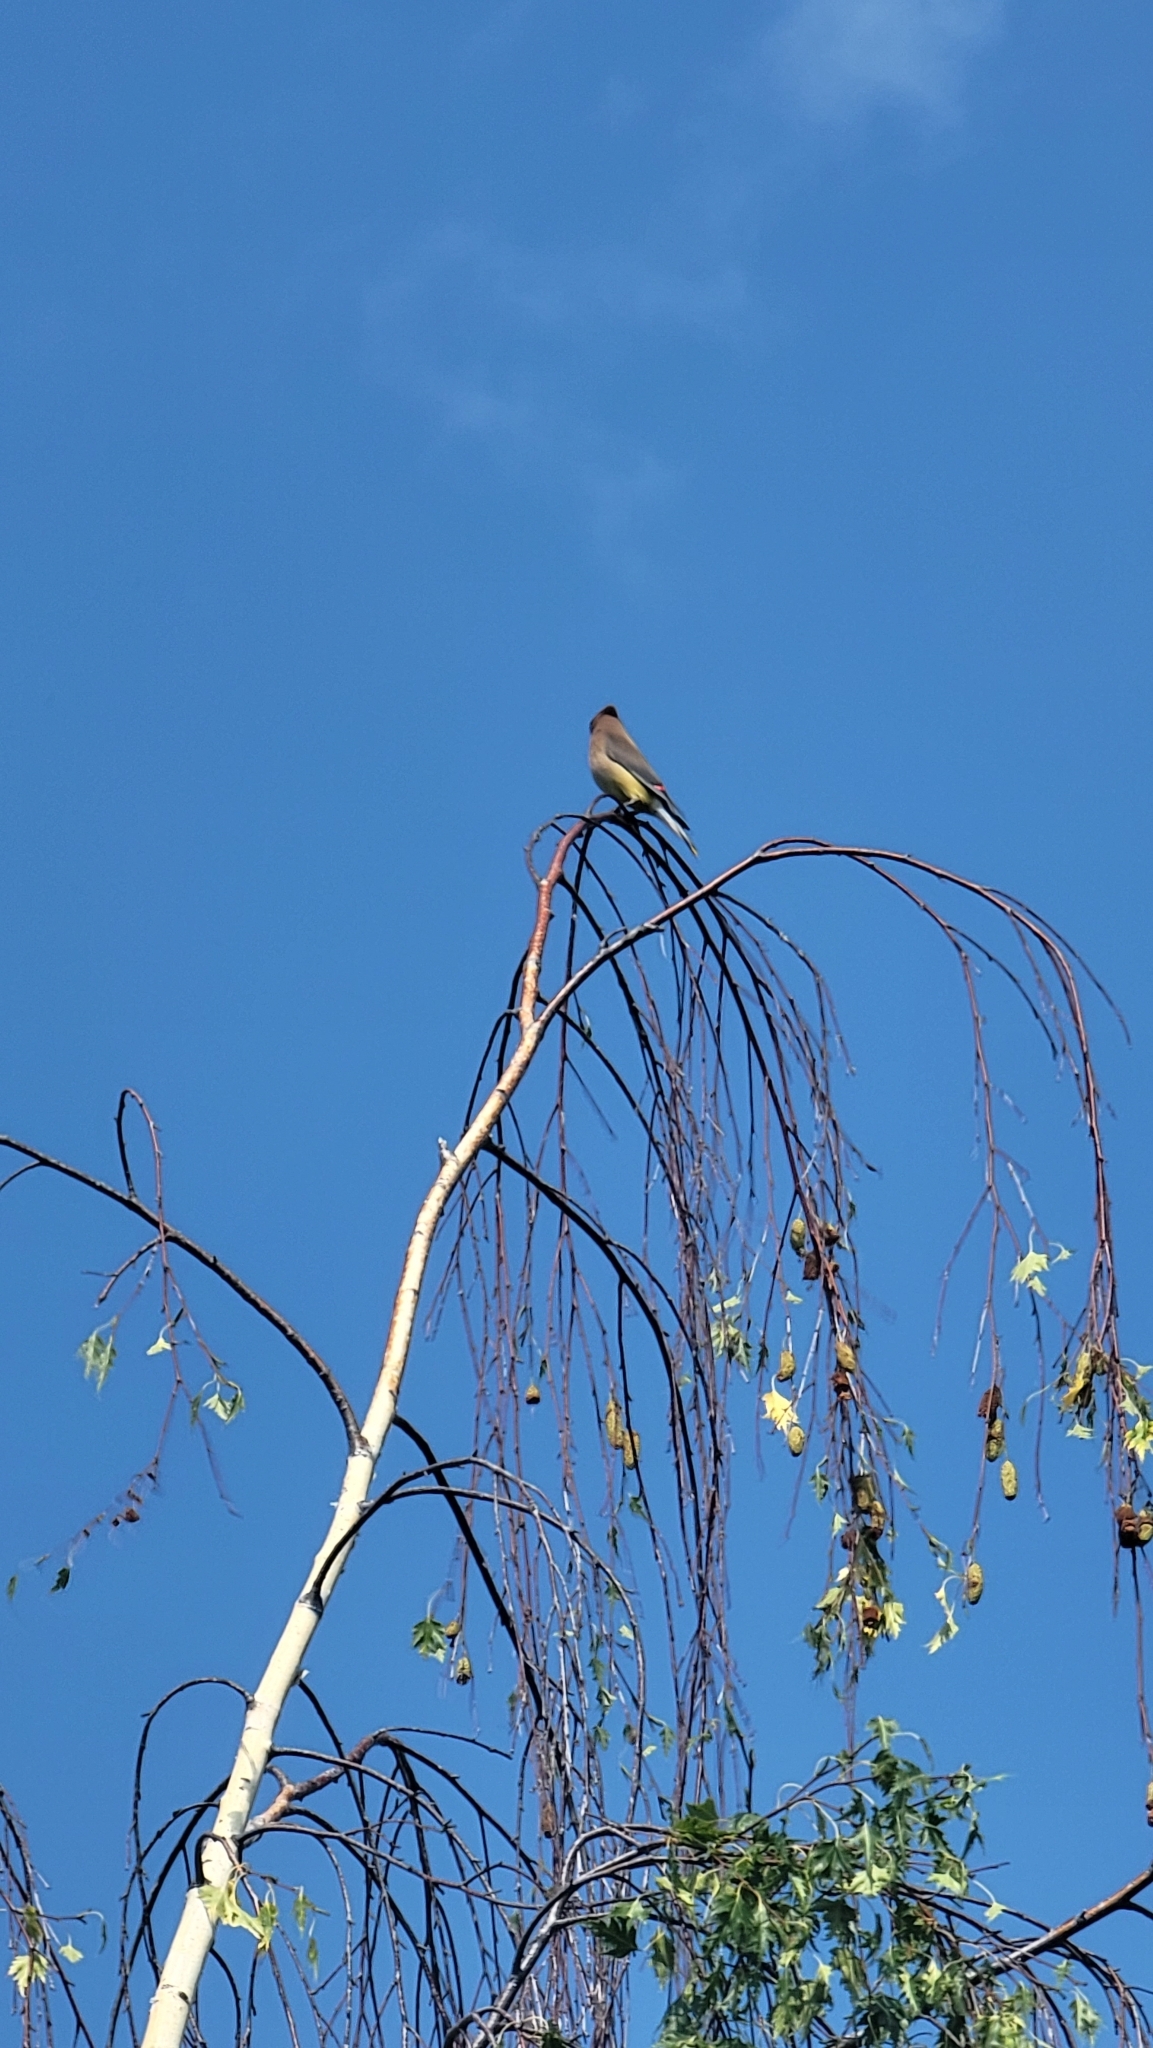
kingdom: Animalia
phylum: Chordata
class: Aves
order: Passeriformes
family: Bombycillidae
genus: Bombycilla
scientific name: Bombycilla cedrorum
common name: Cedar waxwing
